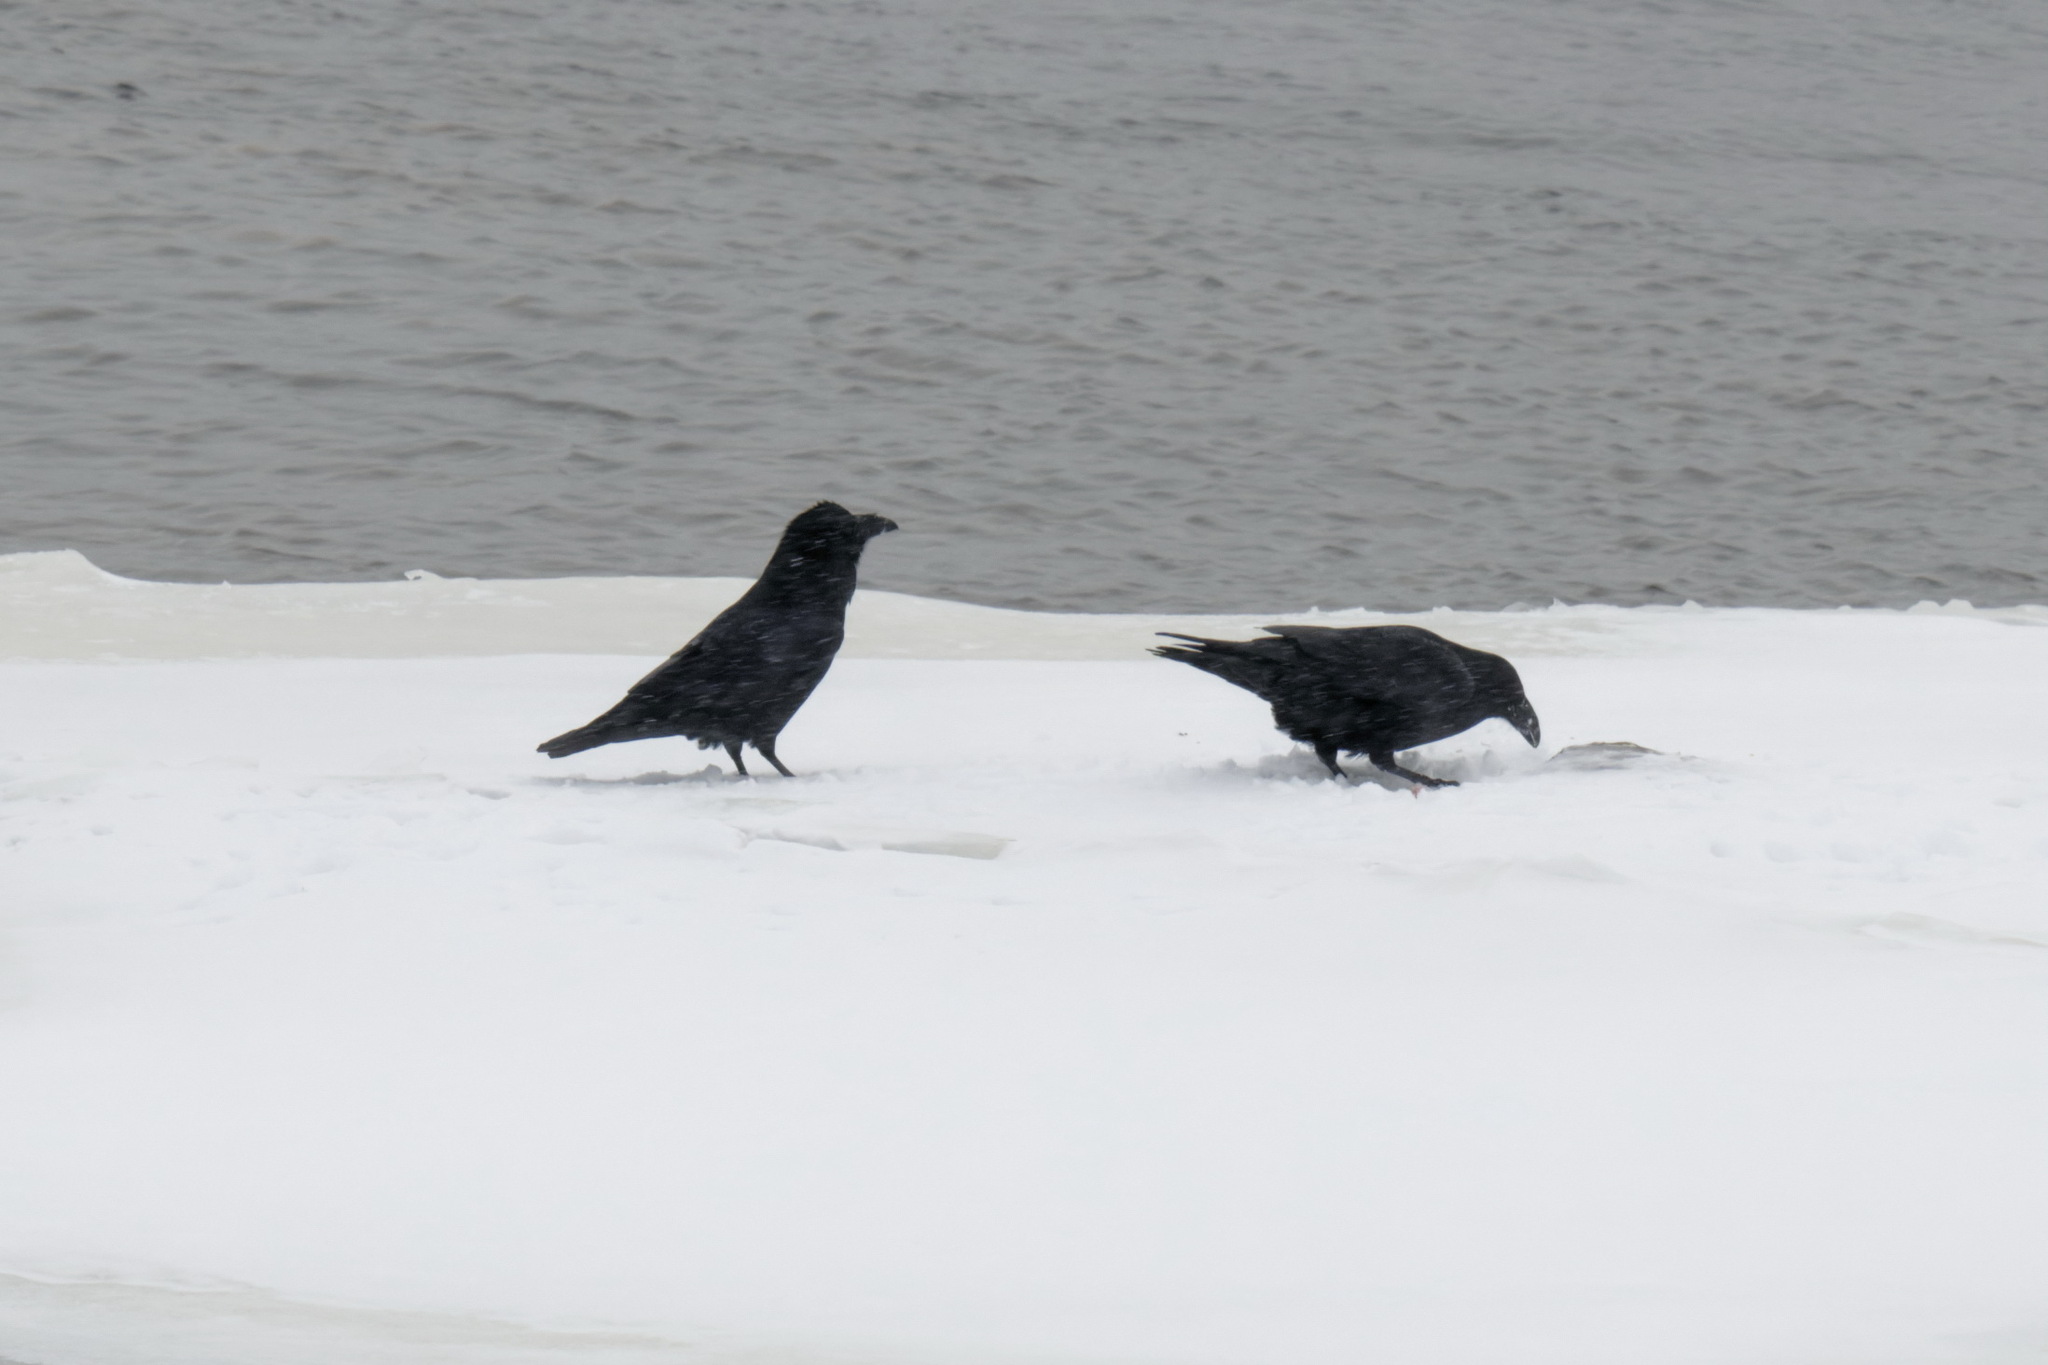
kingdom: Animalia
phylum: Chordata
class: Aves
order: Passeriformes
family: Corvidae
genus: Corvus
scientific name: Corvus corax
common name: Common raven
